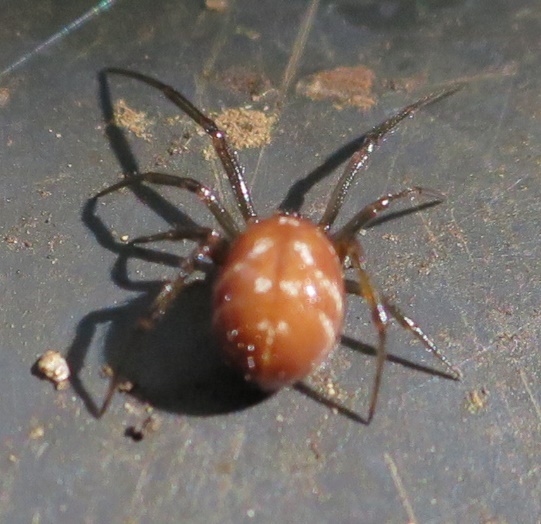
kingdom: Animalia
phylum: Arthropoda
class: Arachnida
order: Araneae
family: Theridiidae
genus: Steatoda
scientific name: Steatoda capensis
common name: Cobweb weaver
